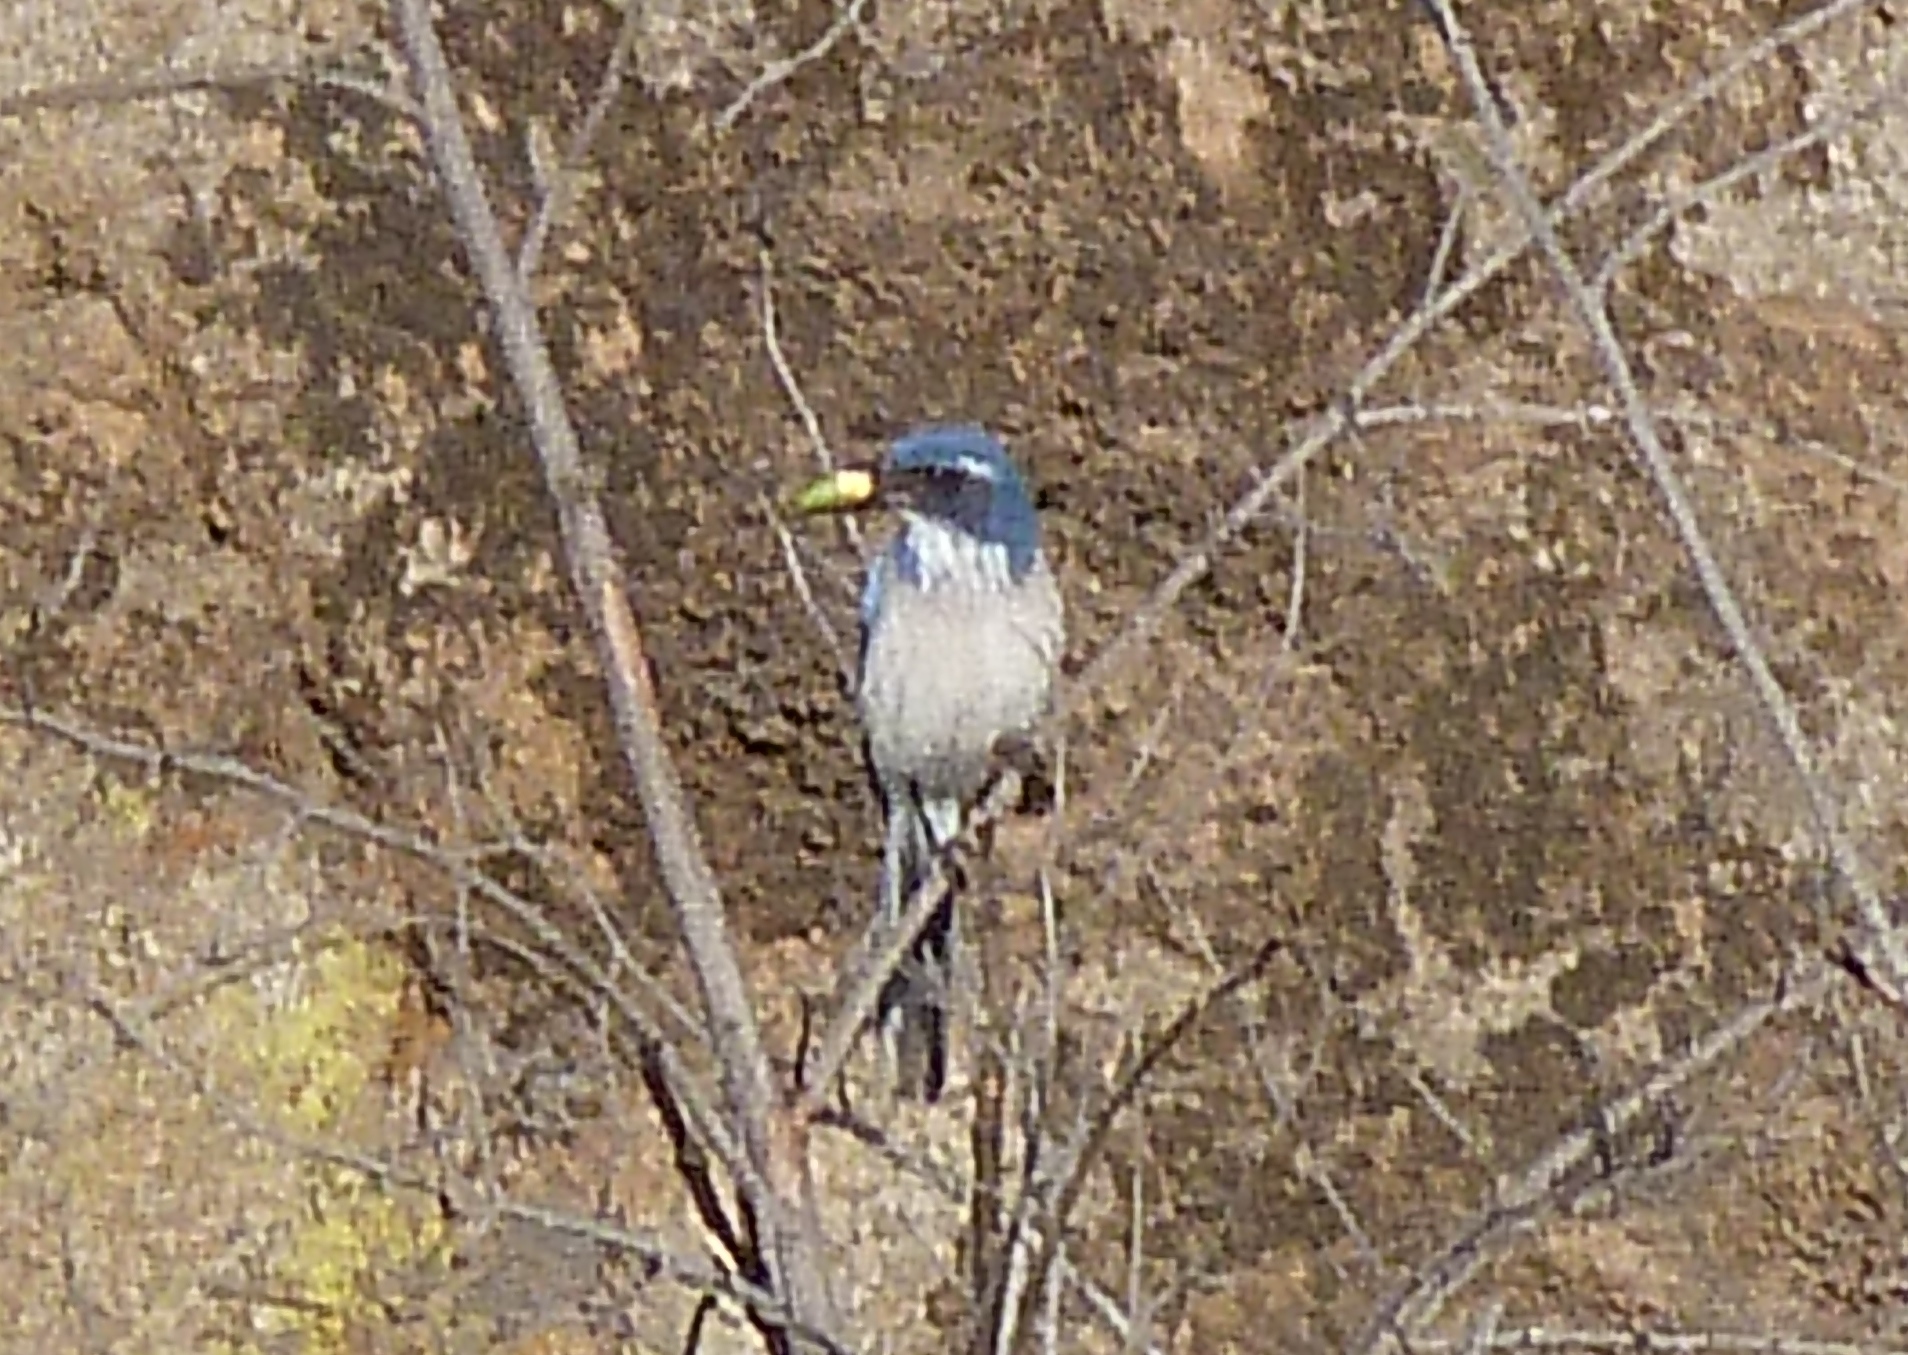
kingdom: Animalia
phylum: Chordata
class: Aves
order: Passeriformes
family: Corvidae
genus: Aphelocoma
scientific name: Aphelocoma californica
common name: California scrub-jay
